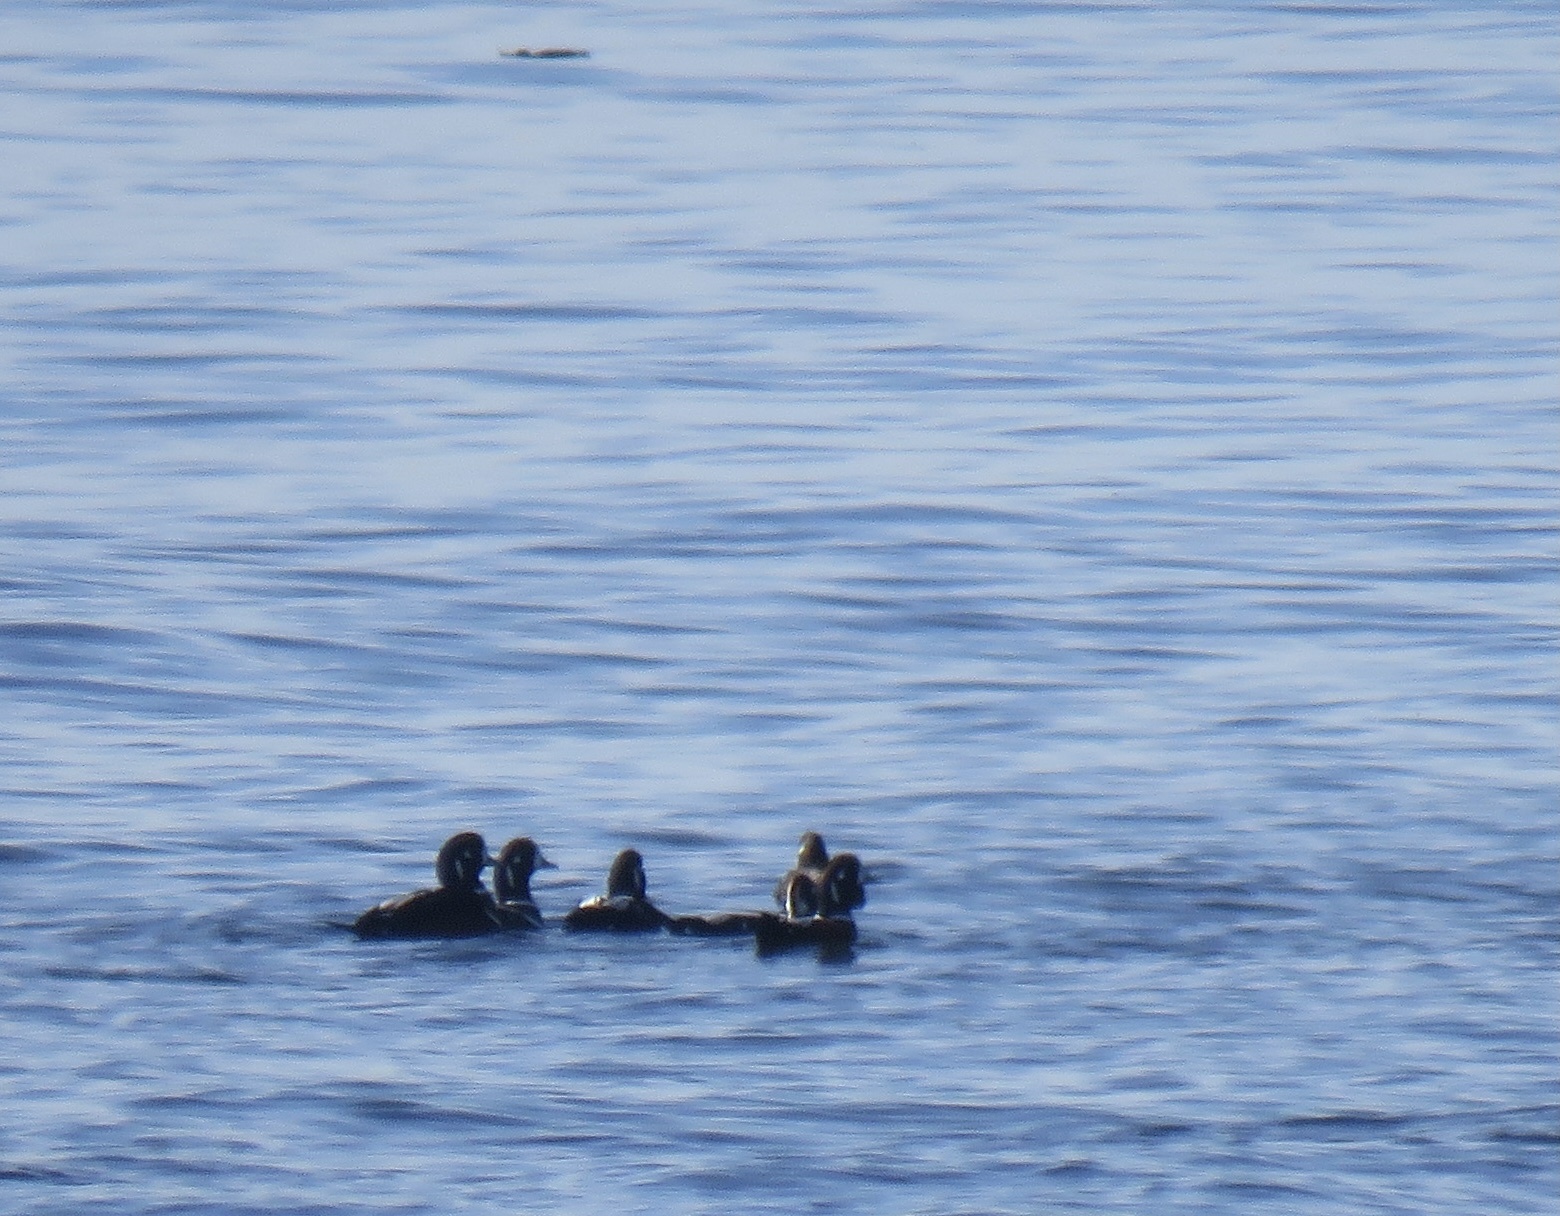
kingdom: Animalia
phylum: Chordata
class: Aves
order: Anseriformes
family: Anatidae
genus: Histrionicus
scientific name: Histrionicus histrionicus
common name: Harlequin duck
